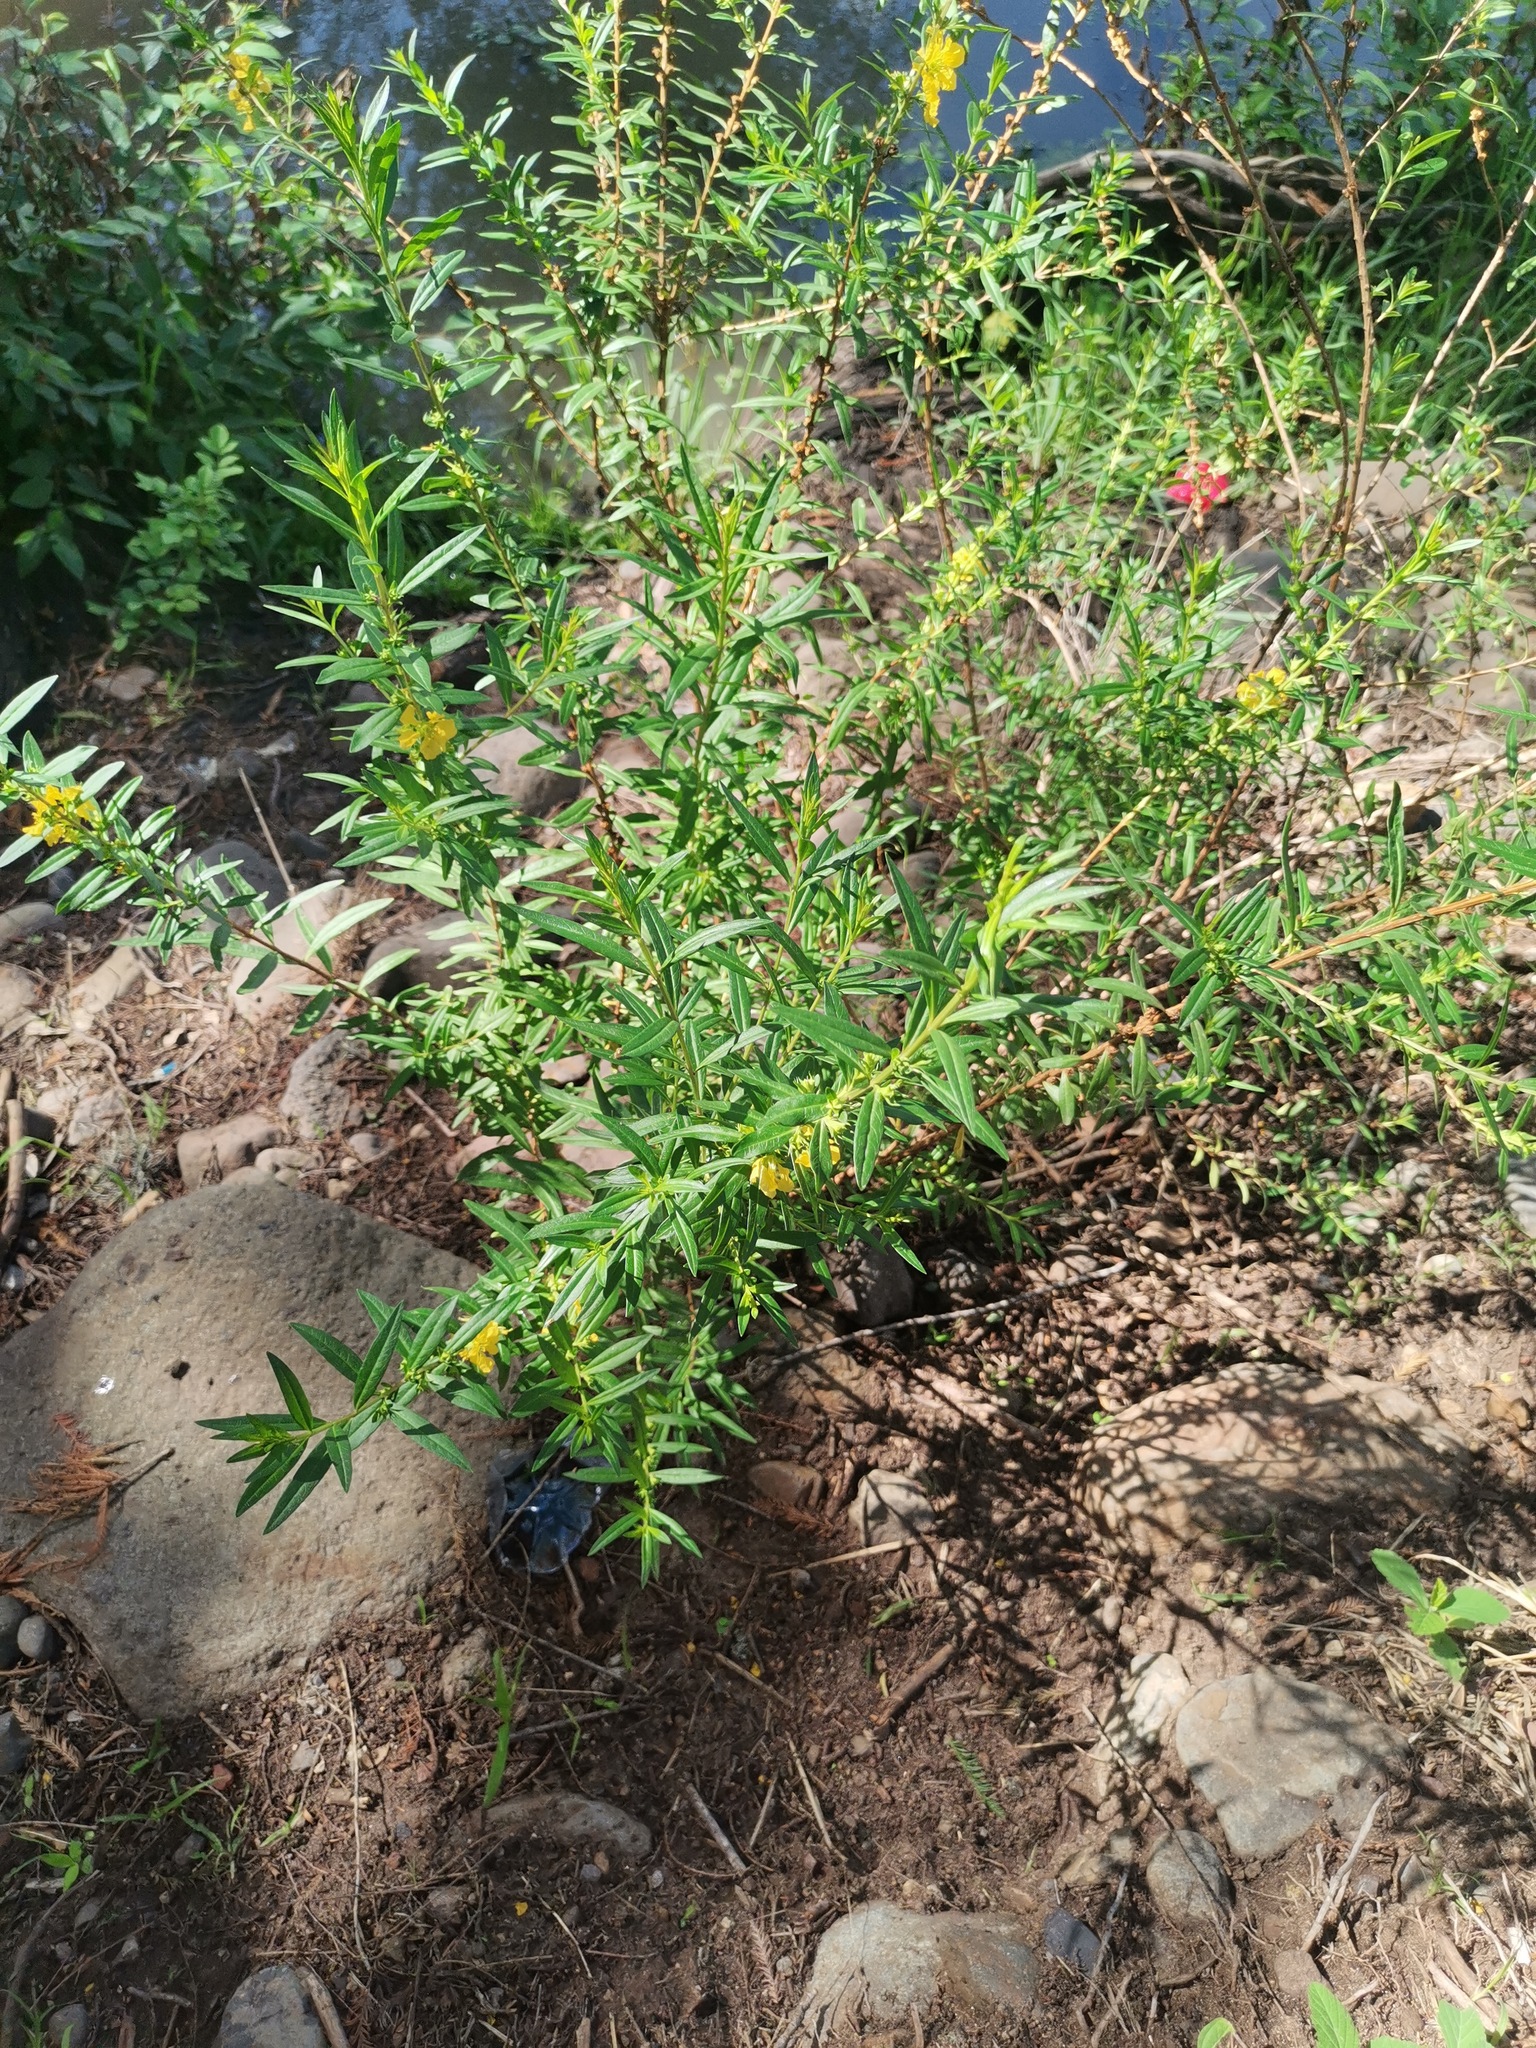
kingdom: Plantae
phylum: Tracheophyta
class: Magnoliopsida
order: Myrtales
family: Lythraceae
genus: Heimia
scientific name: Heimia salicifolia
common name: Willow-leaf heimia
